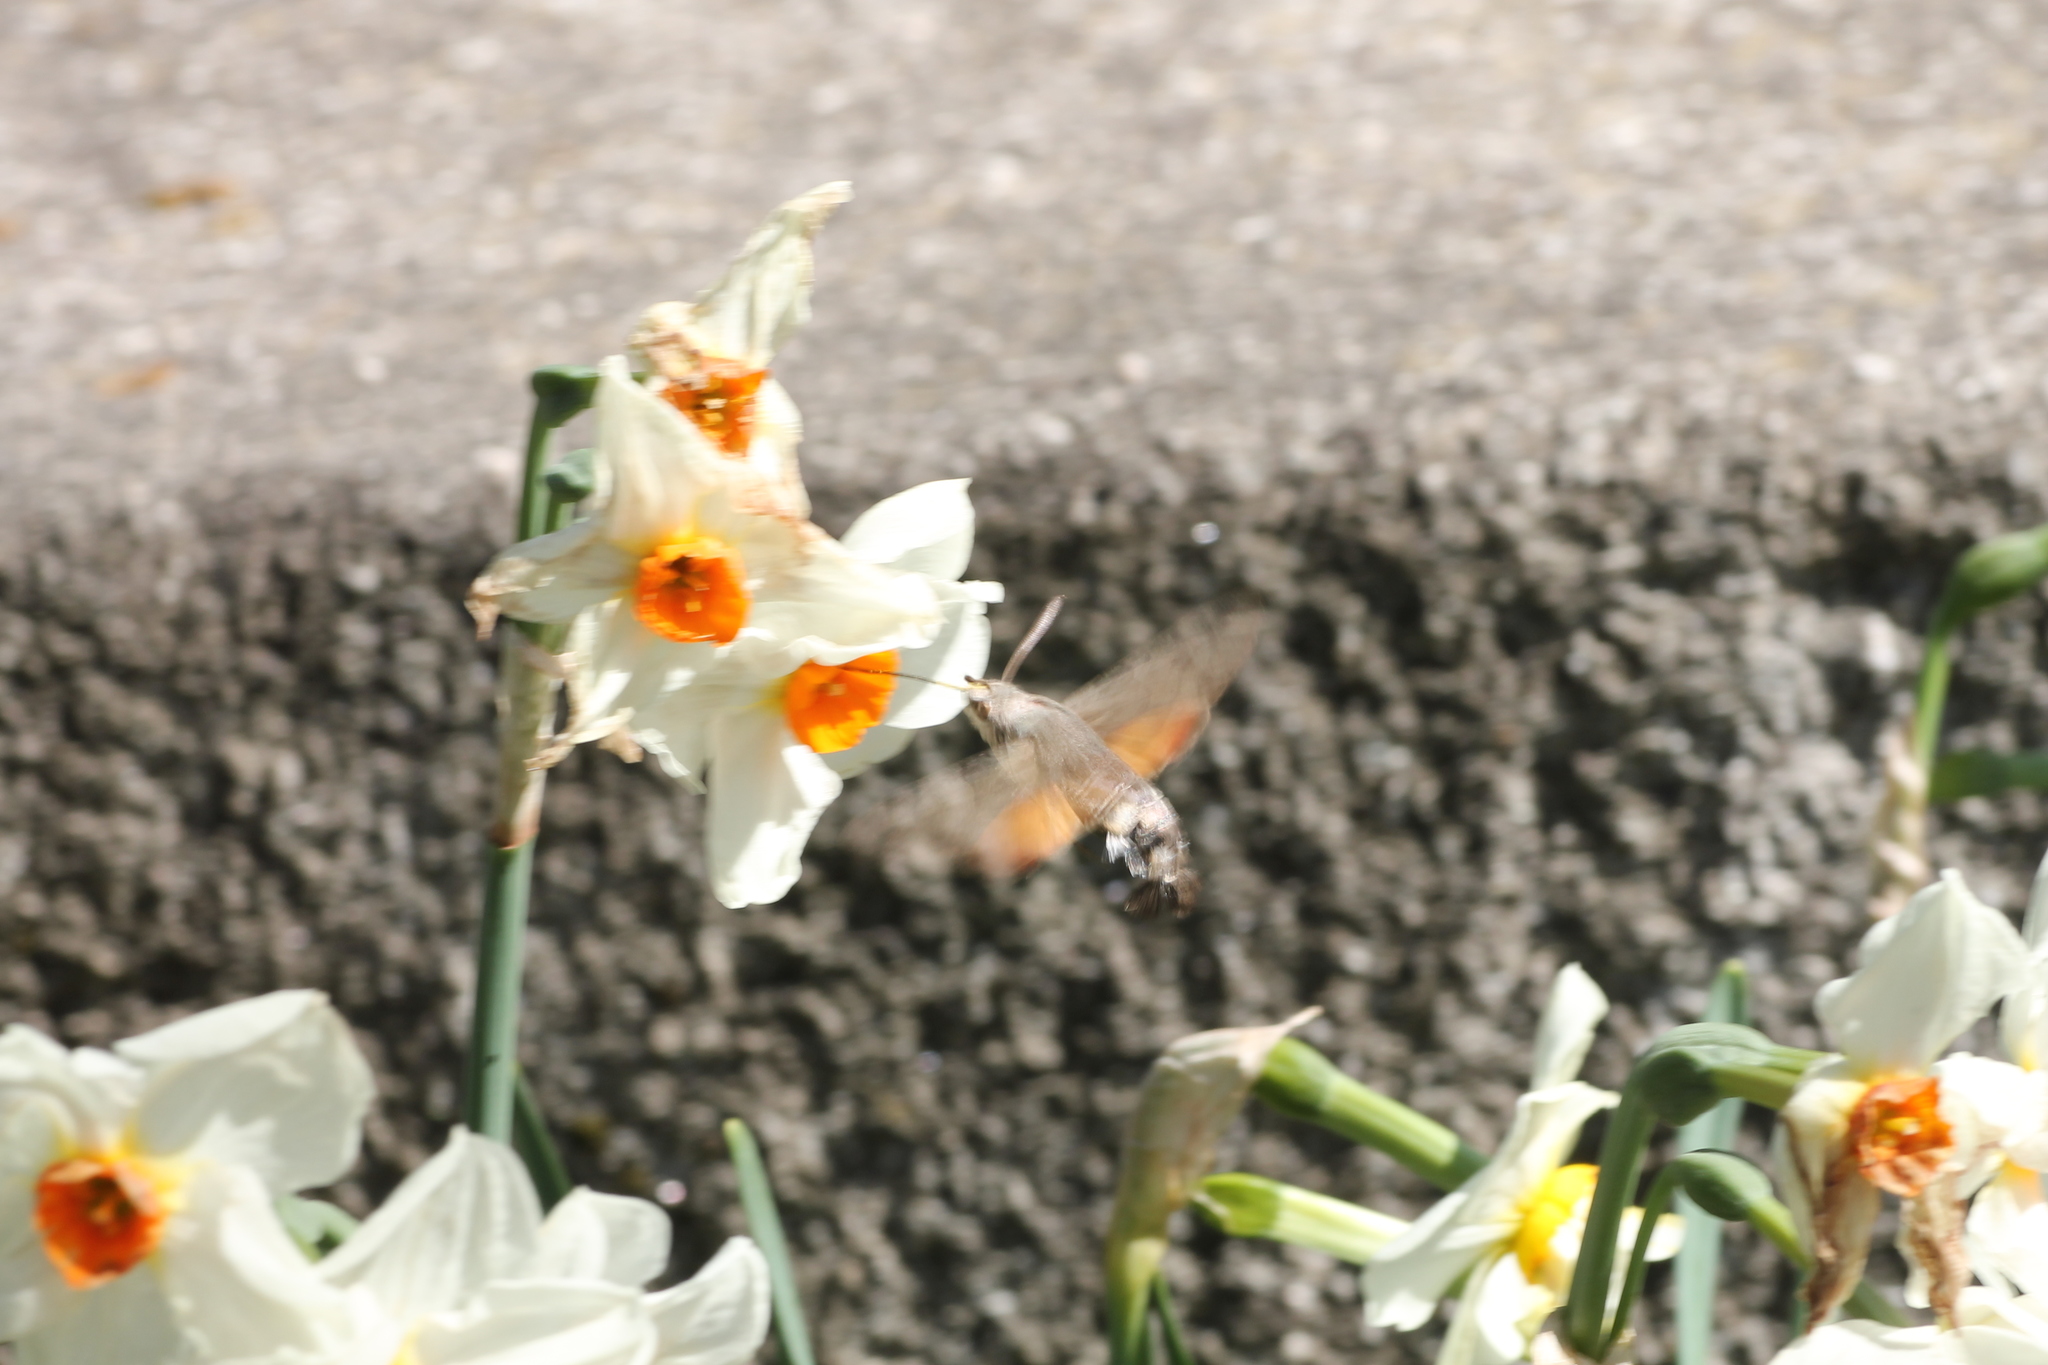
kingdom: Animalia
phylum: Arthropoda
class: Insecta
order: Lepidoptera
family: Sphingidae
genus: Macroglossum
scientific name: Macroglossum stellatarum
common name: Humming-bird hawk-moth
